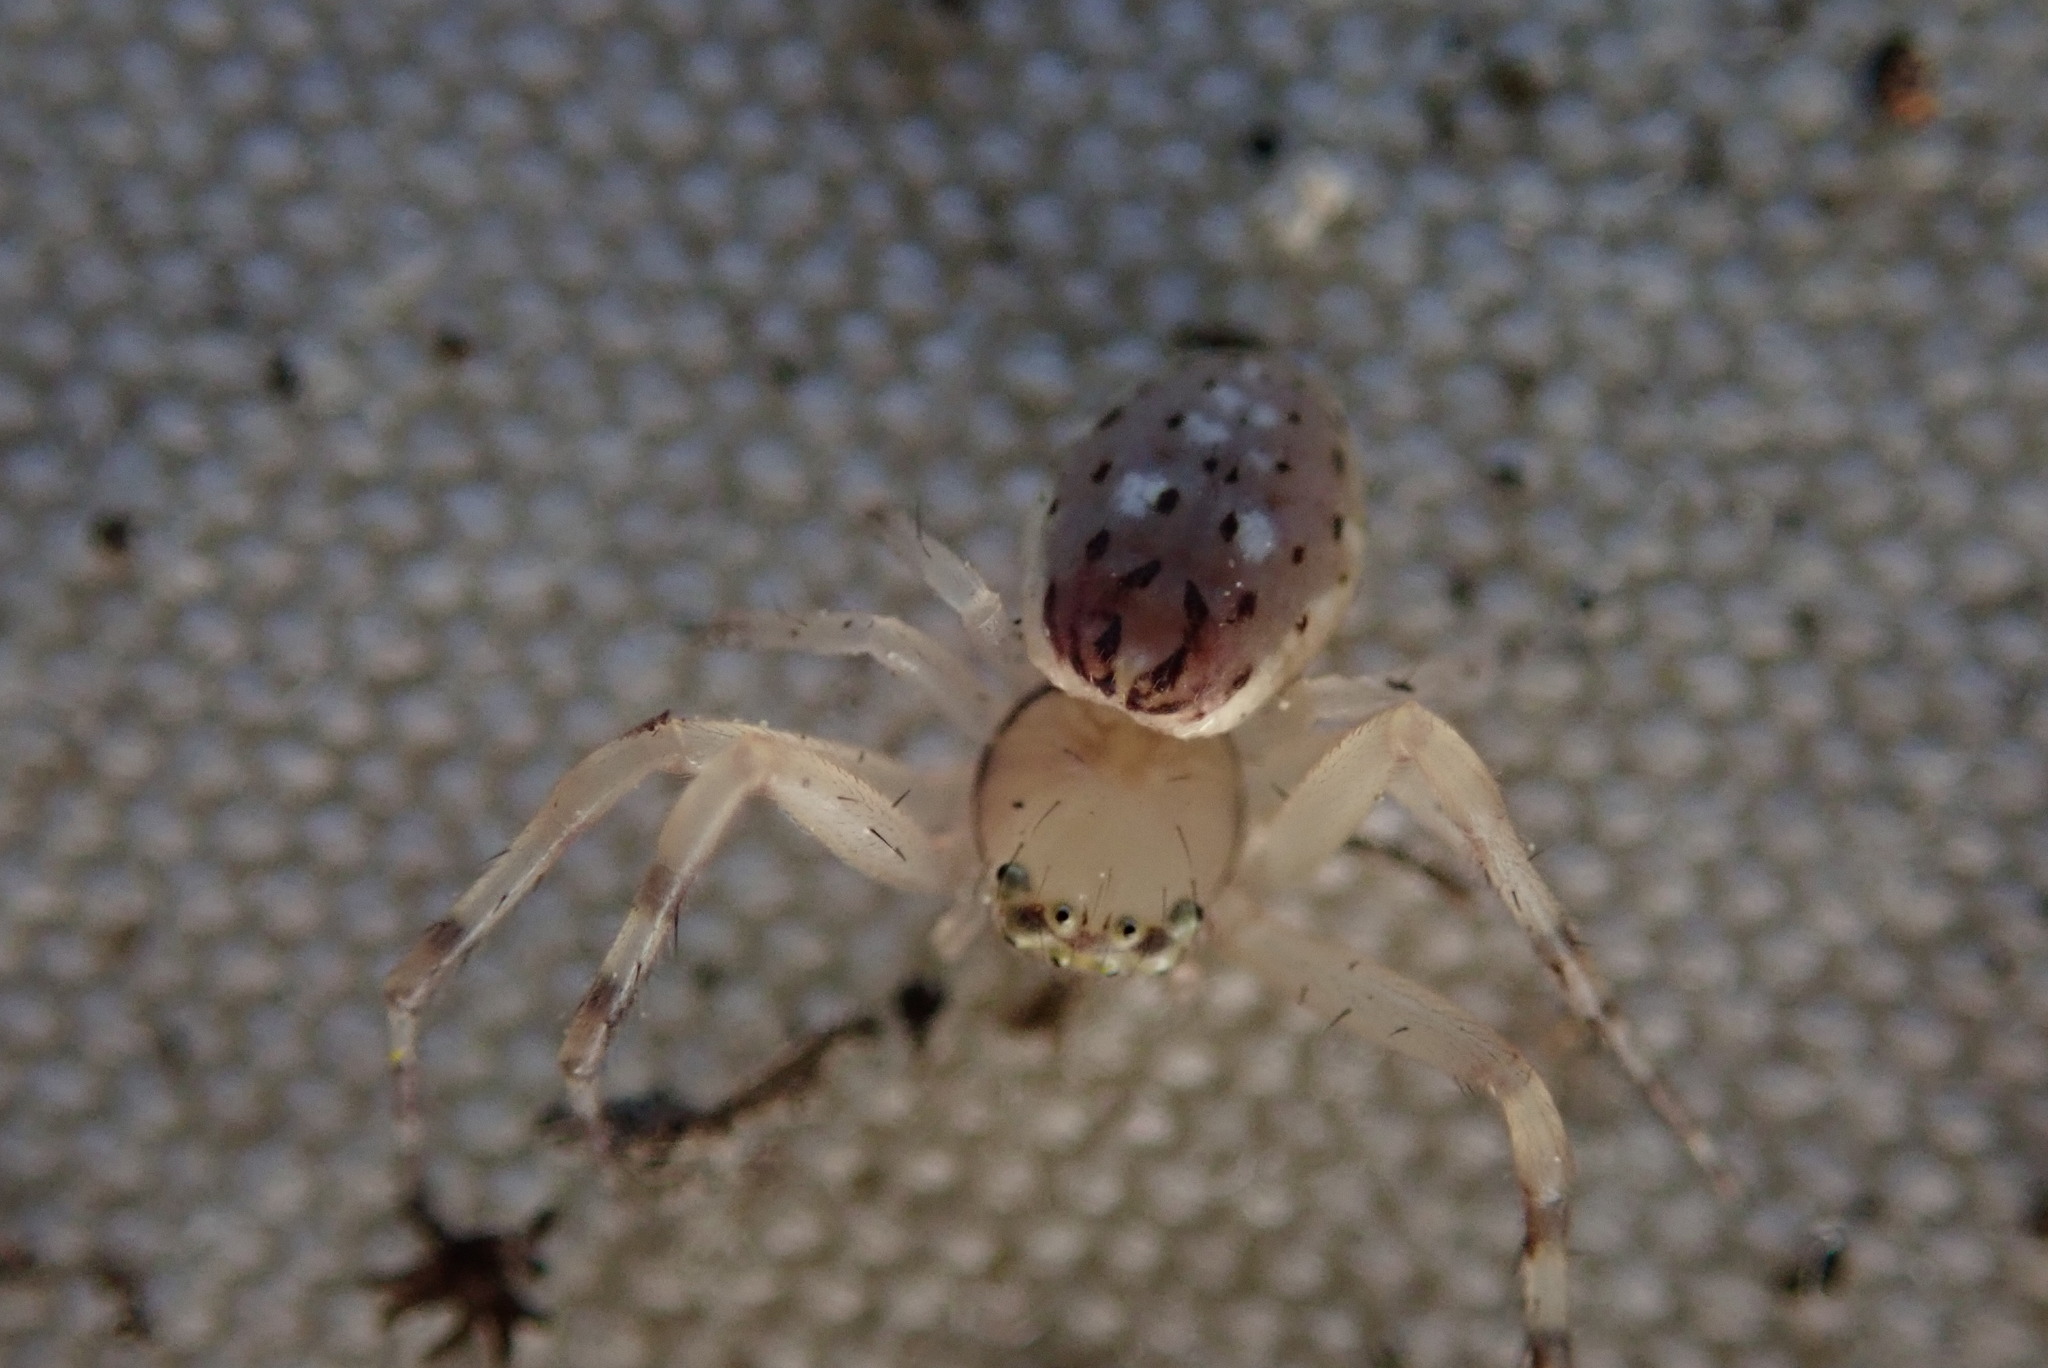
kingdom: Animalia
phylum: Arthropoda
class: Arachnida
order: Araneae
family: Thomisidae
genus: Diaea
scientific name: Diaea ambara
